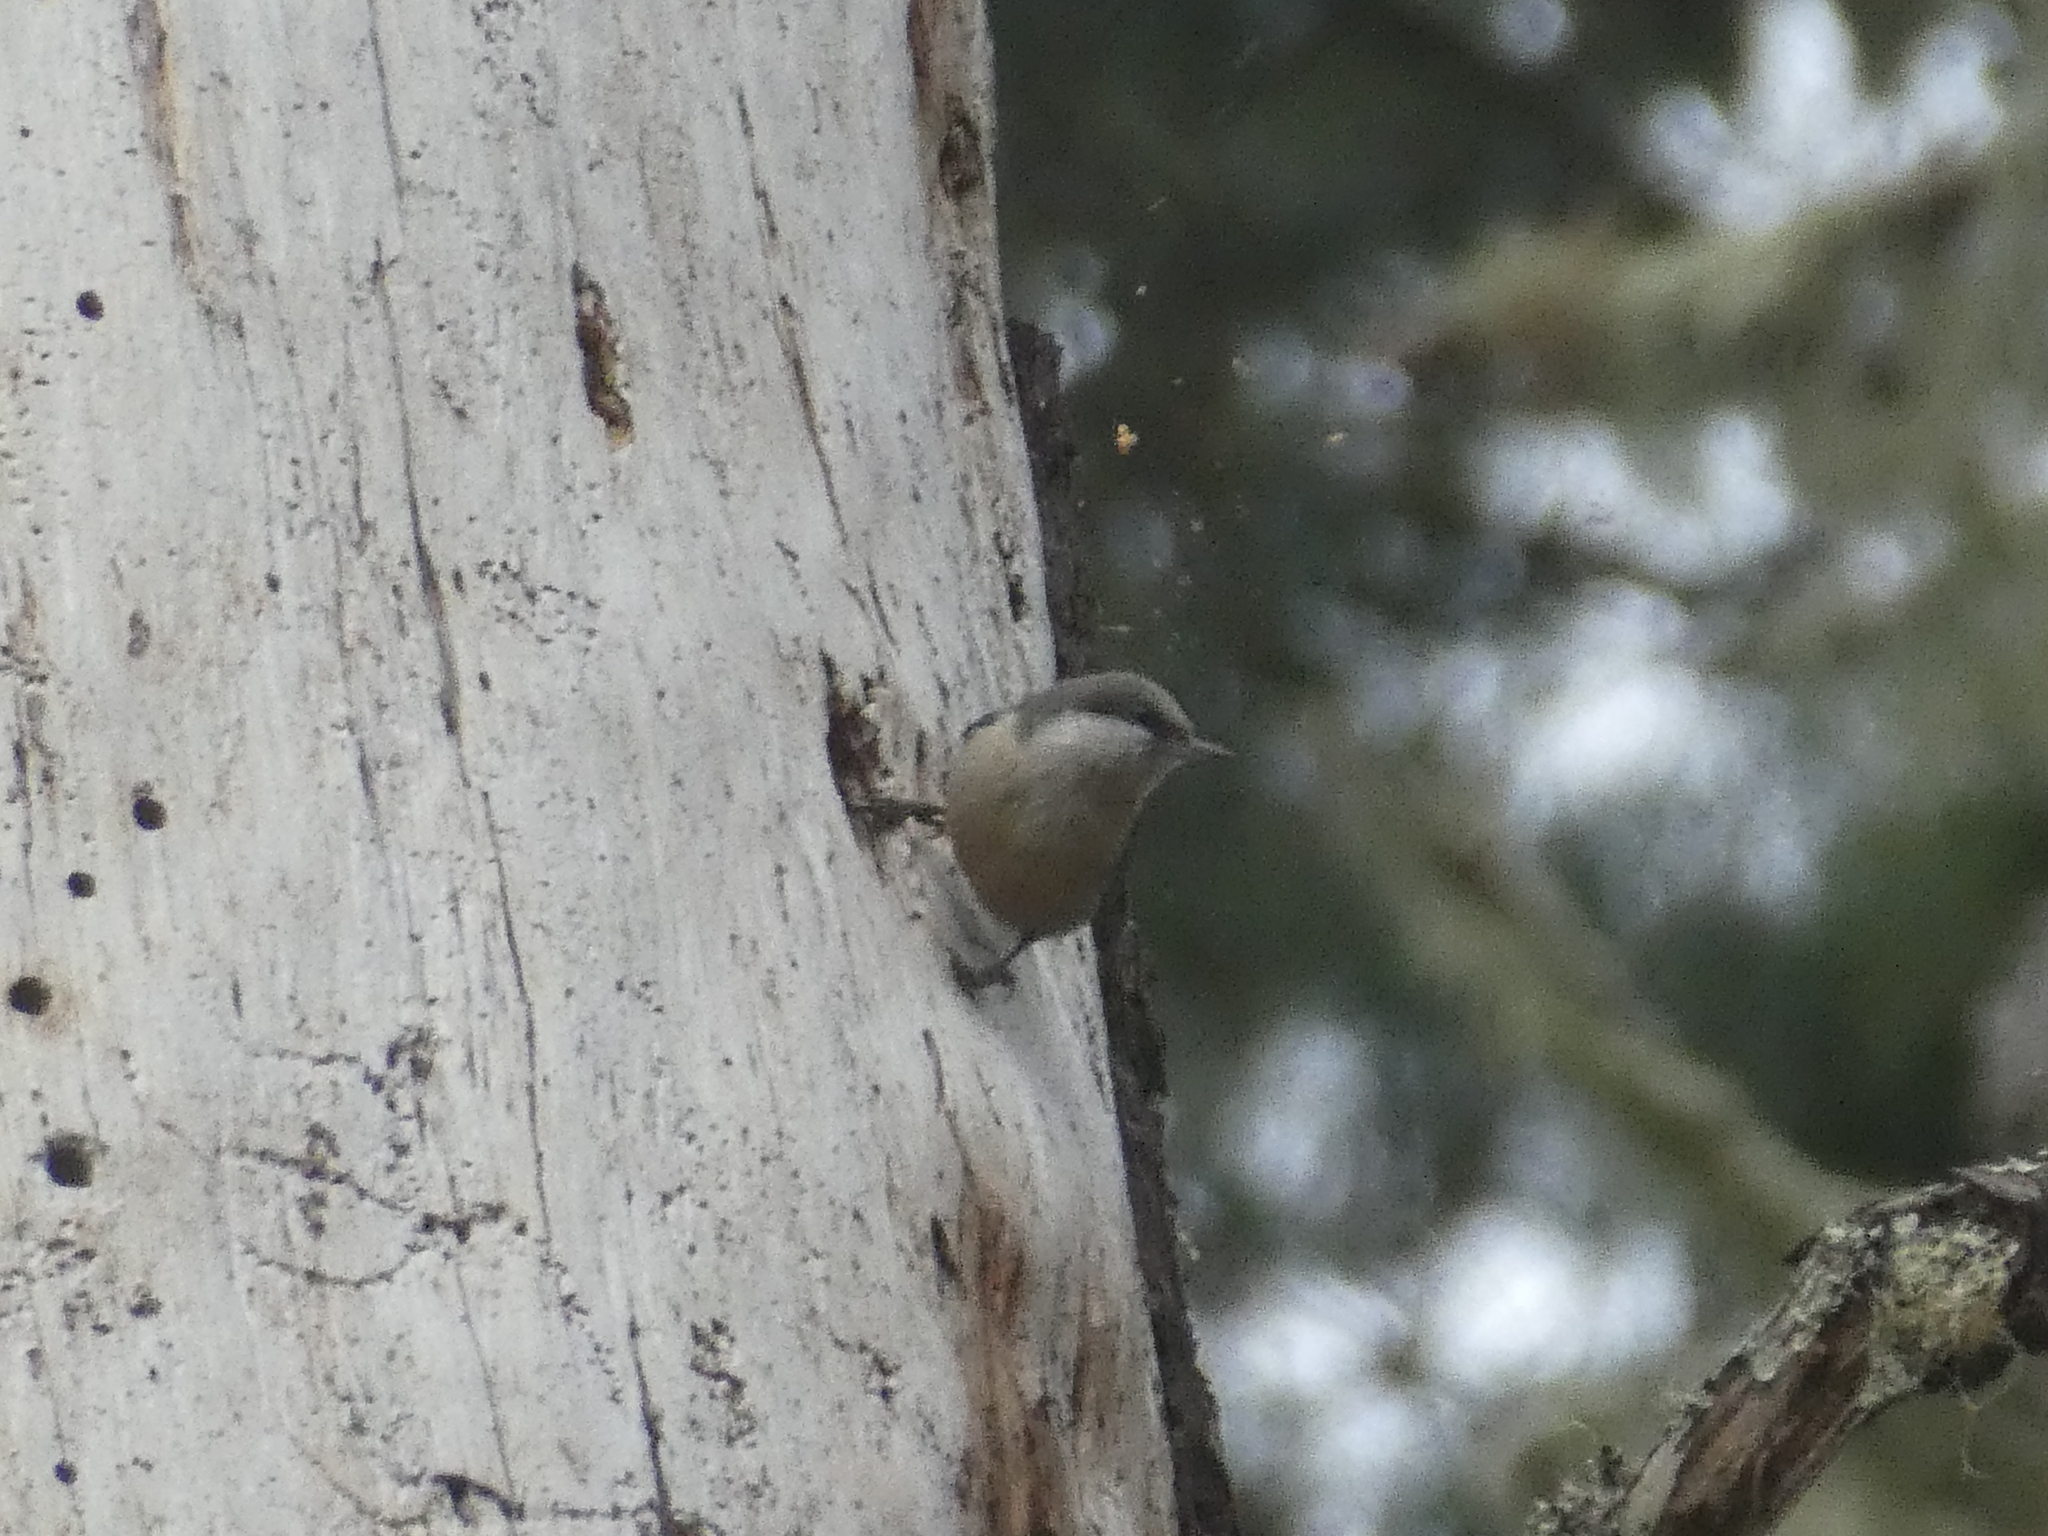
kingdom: Animalia
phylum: Chordata
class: Aves
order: Passeriformes
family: Sittidae
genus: Sitta
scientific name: Sitta pygmaea
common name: Pygmy nuthatch
